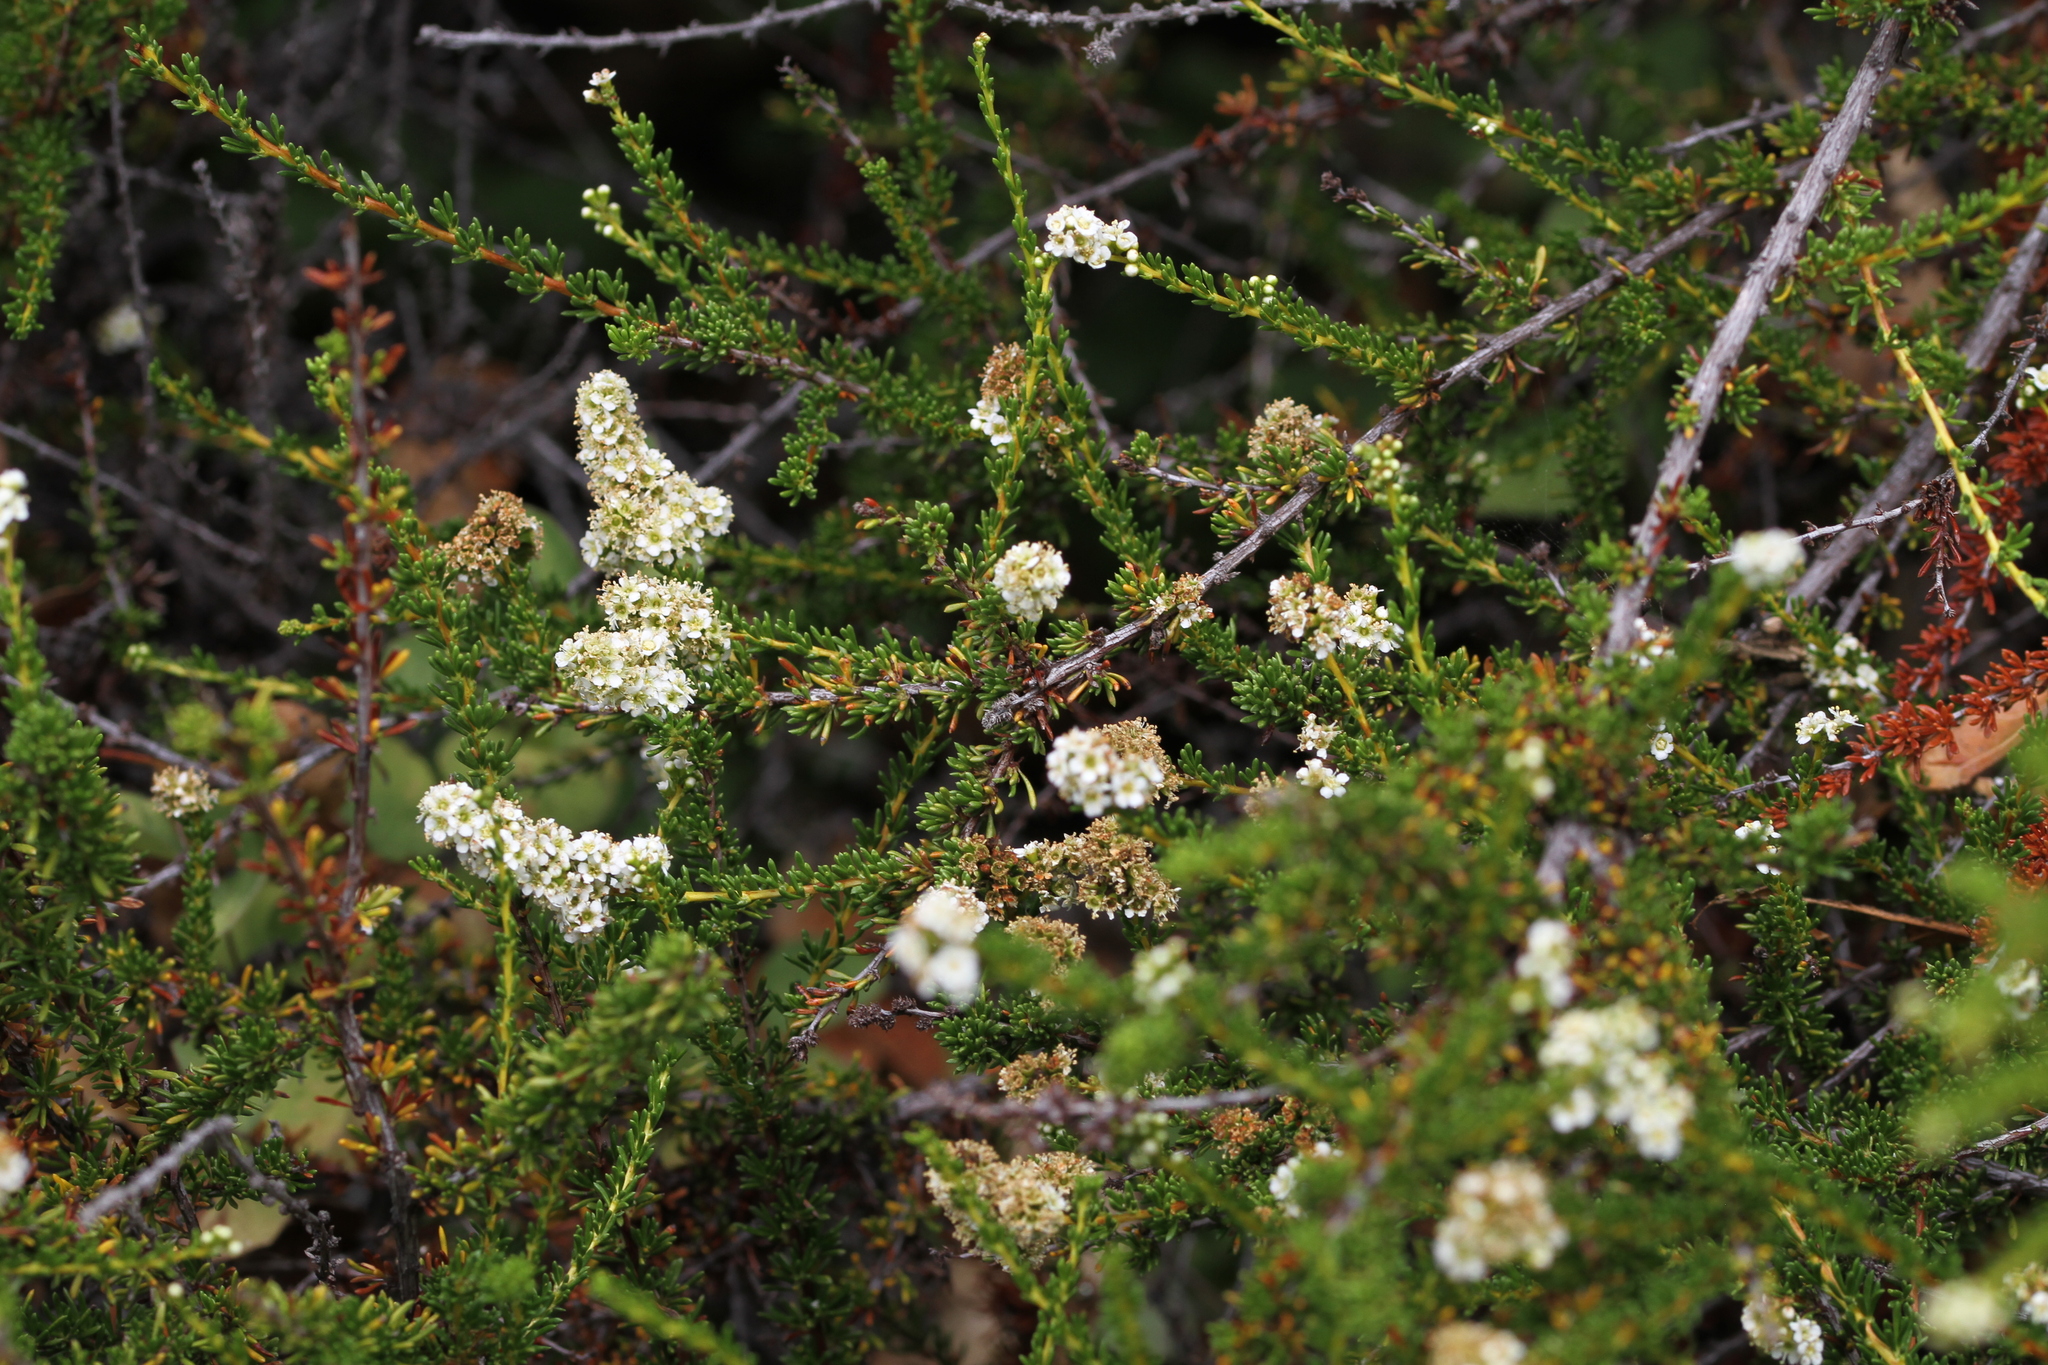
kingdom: Plantae
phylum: Tracheophyta
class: Magnoliopsida
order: Rosales
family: Rosaceae
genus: Adenostoma
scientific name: Adenostoma fasciculatum
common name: Chamise
